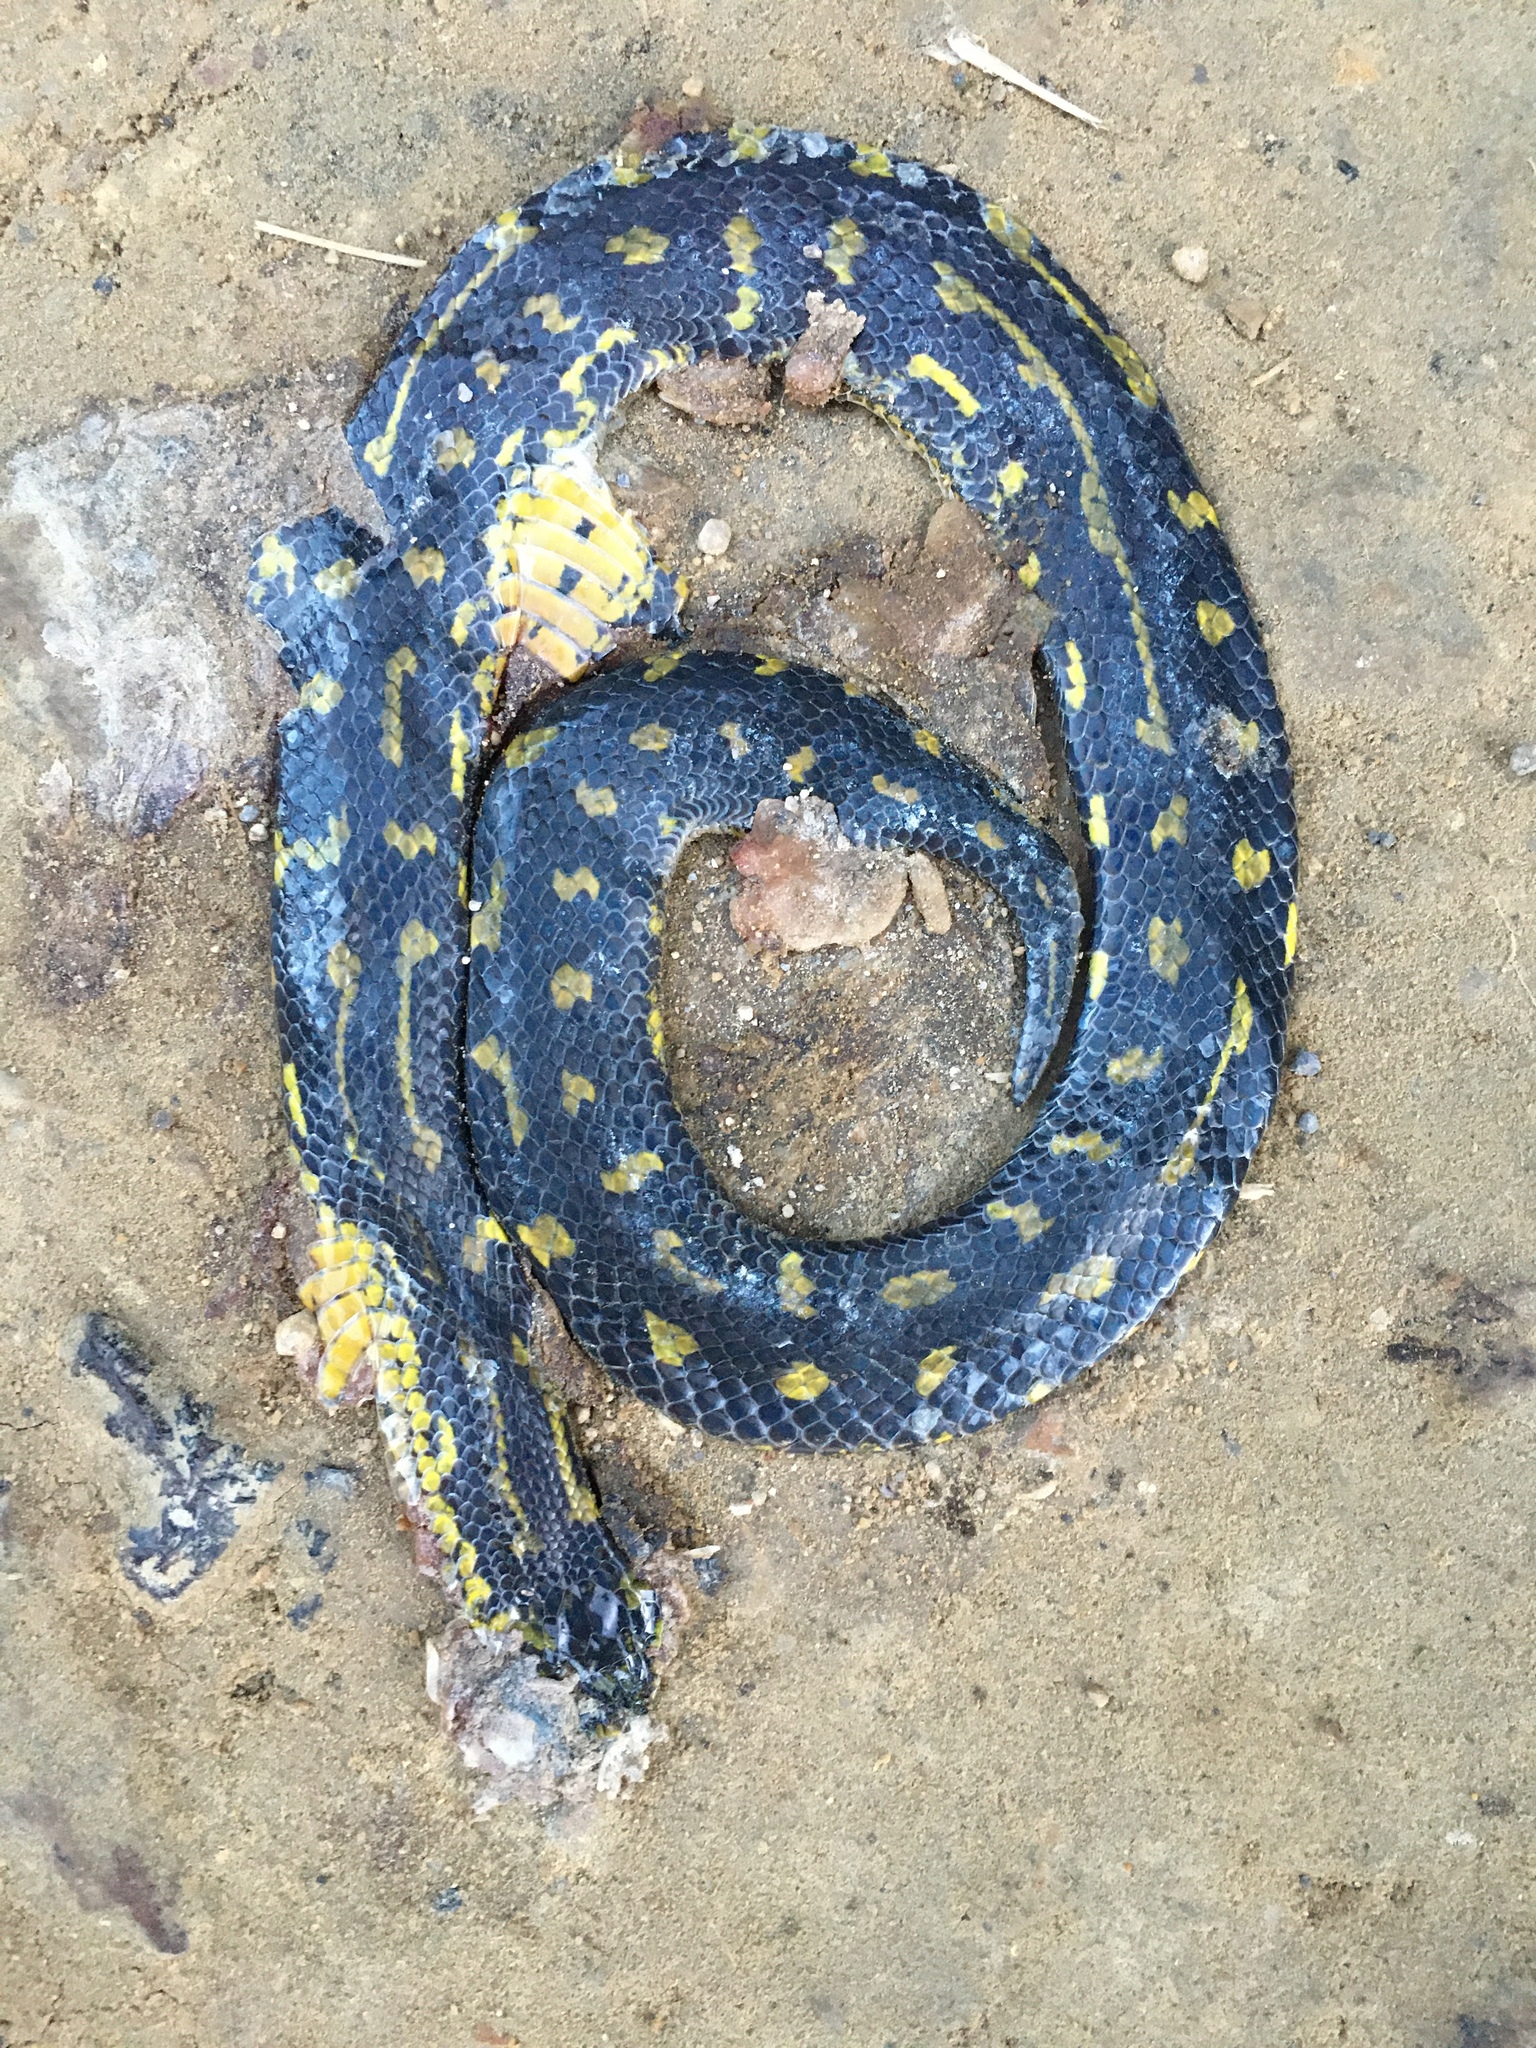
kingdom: Animalia
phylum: Chordata
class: Squamata
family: Colubridae
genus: Atractus
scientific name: Atractus crassicaudatus
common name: Thickhead ground snake
